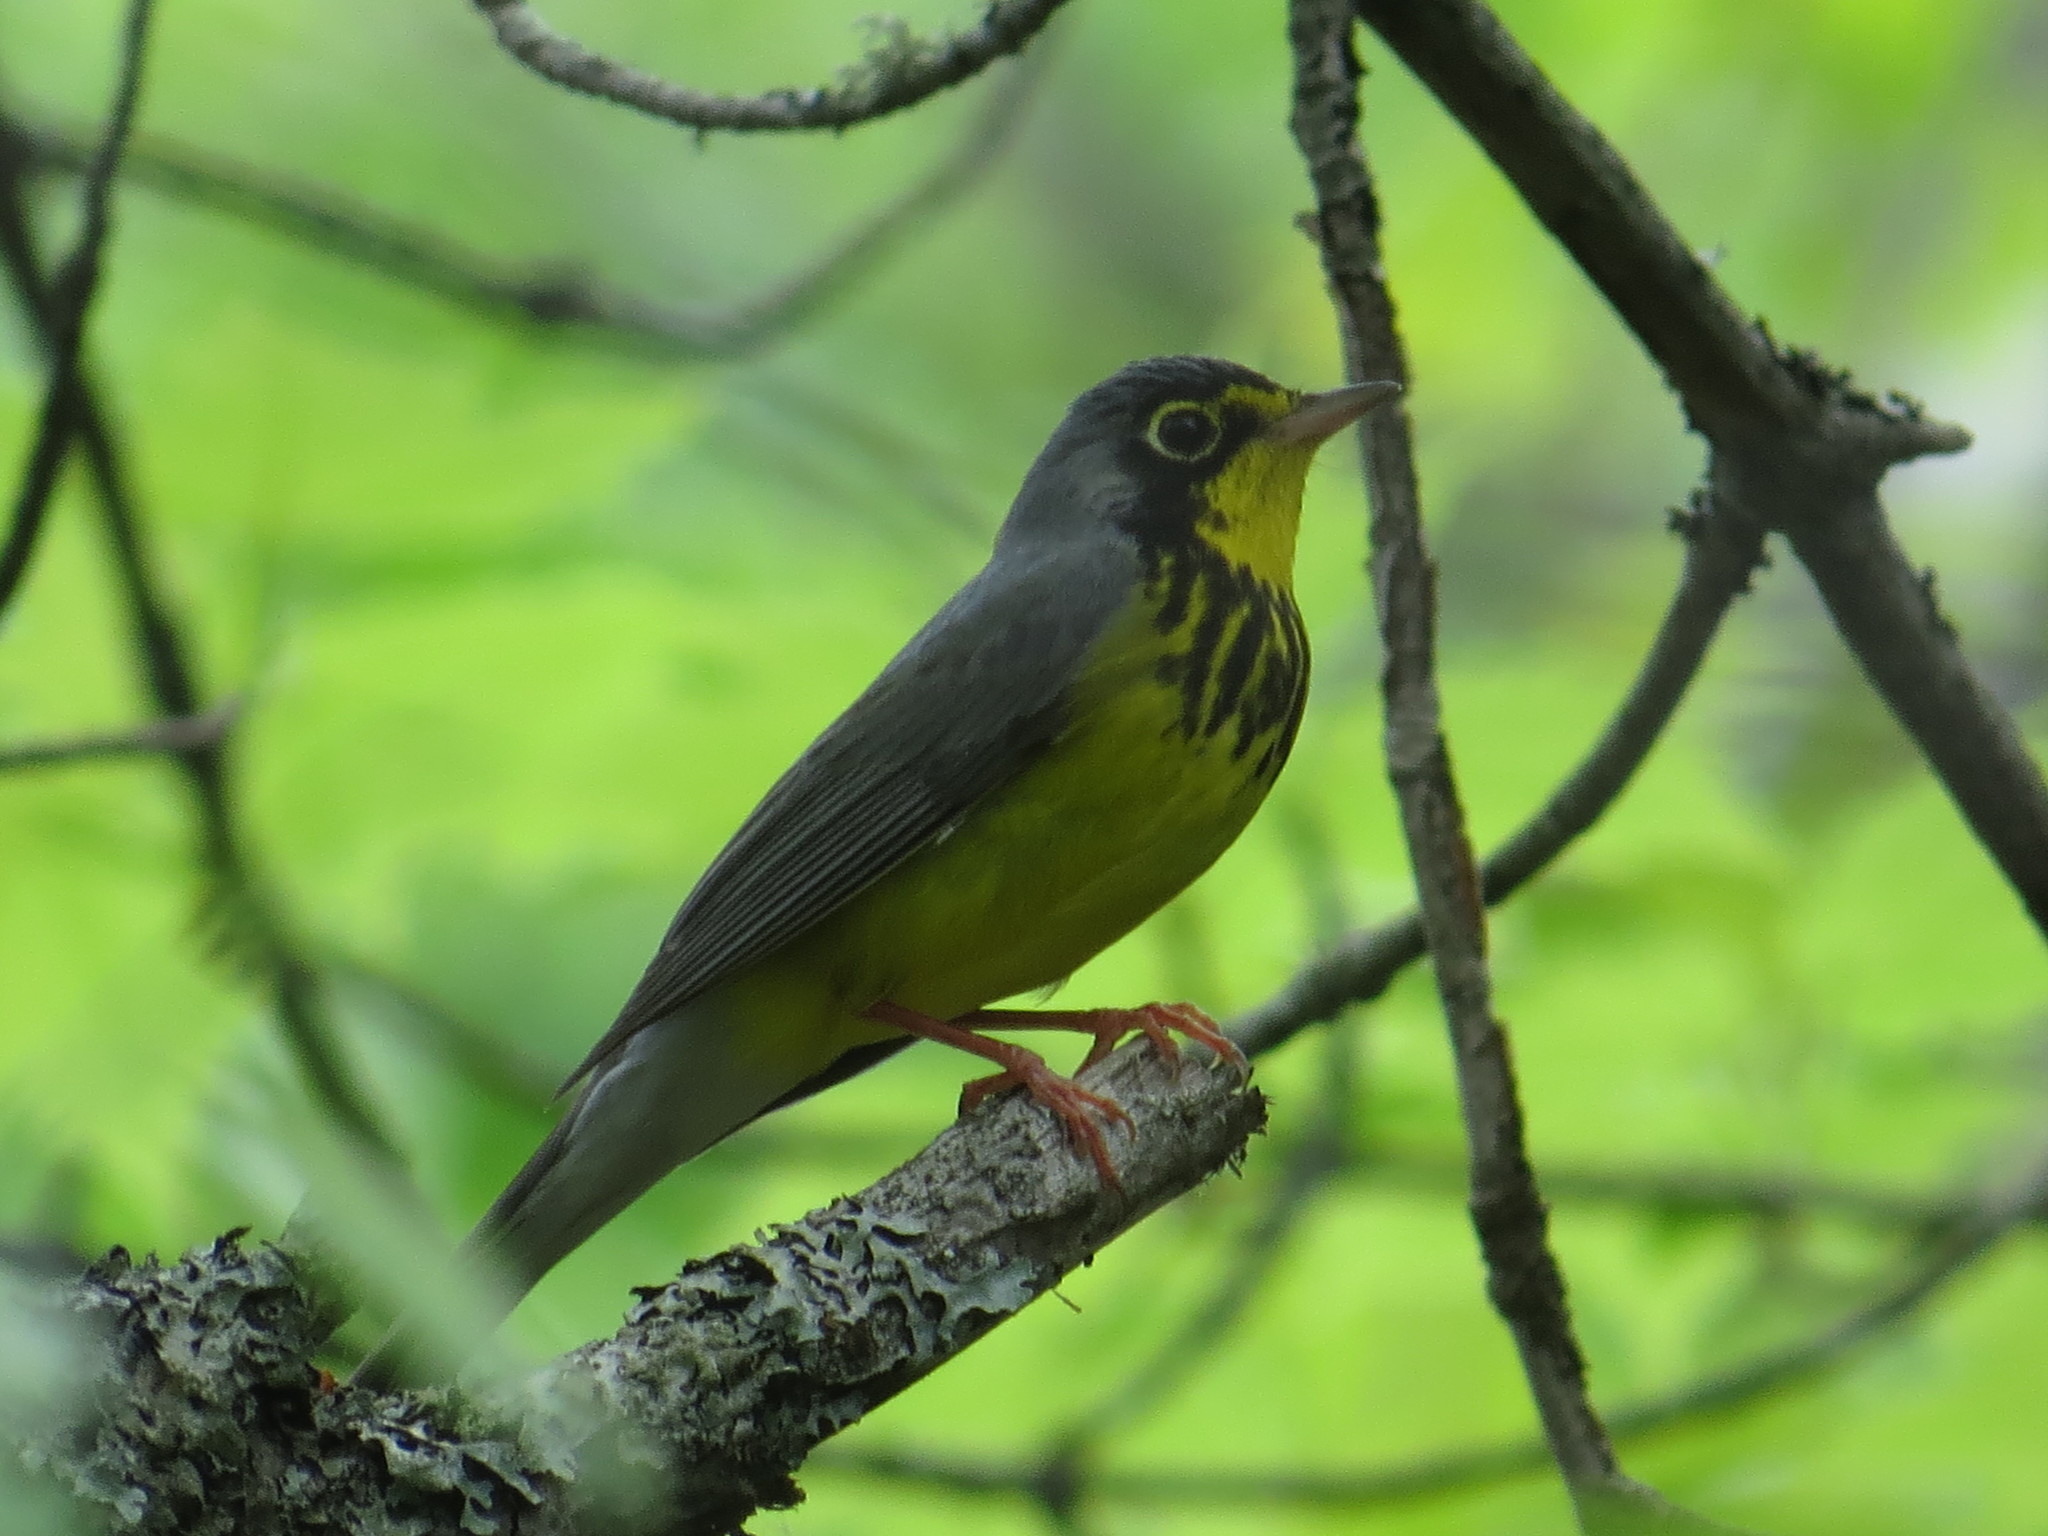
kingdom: Animalia
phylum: Chordata
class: Aves
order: Passeriformes
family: Parulidae
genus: Cardellina
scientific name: Cardellina canadensis
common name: Canada warbler
